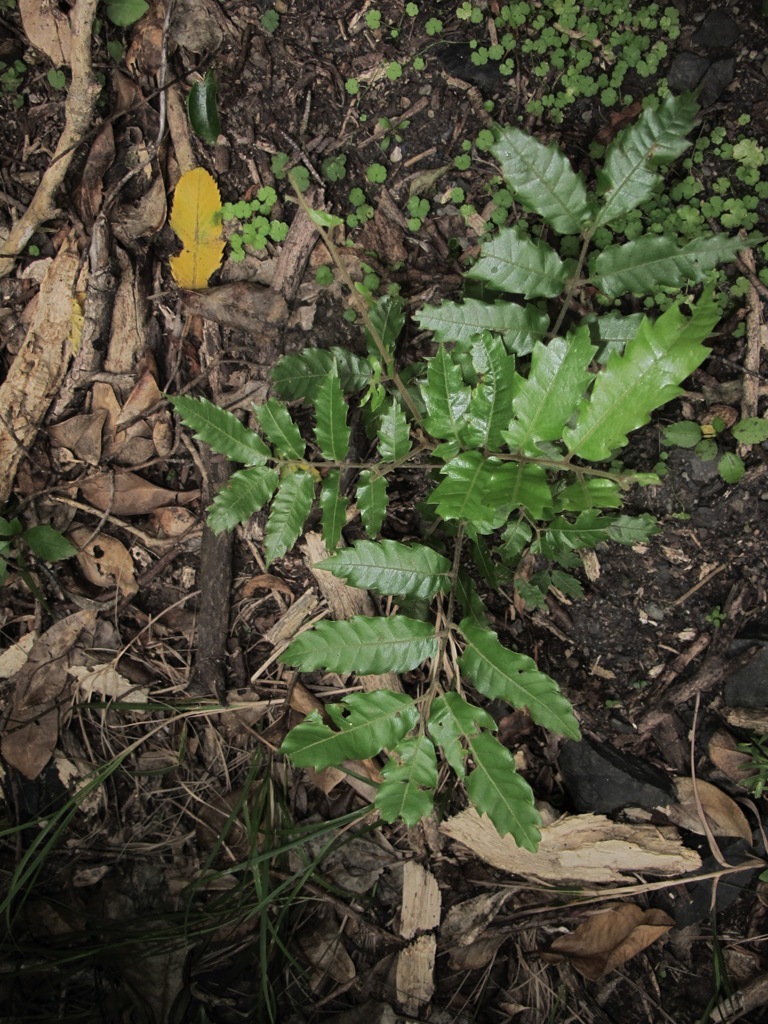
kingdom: Plantae
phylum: Tracheophyta
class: Magnoliopsida
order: Sapindales
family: Sapindaceae
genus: Alectryon
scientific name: Alectryon excelsus
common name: Three kings titoki
